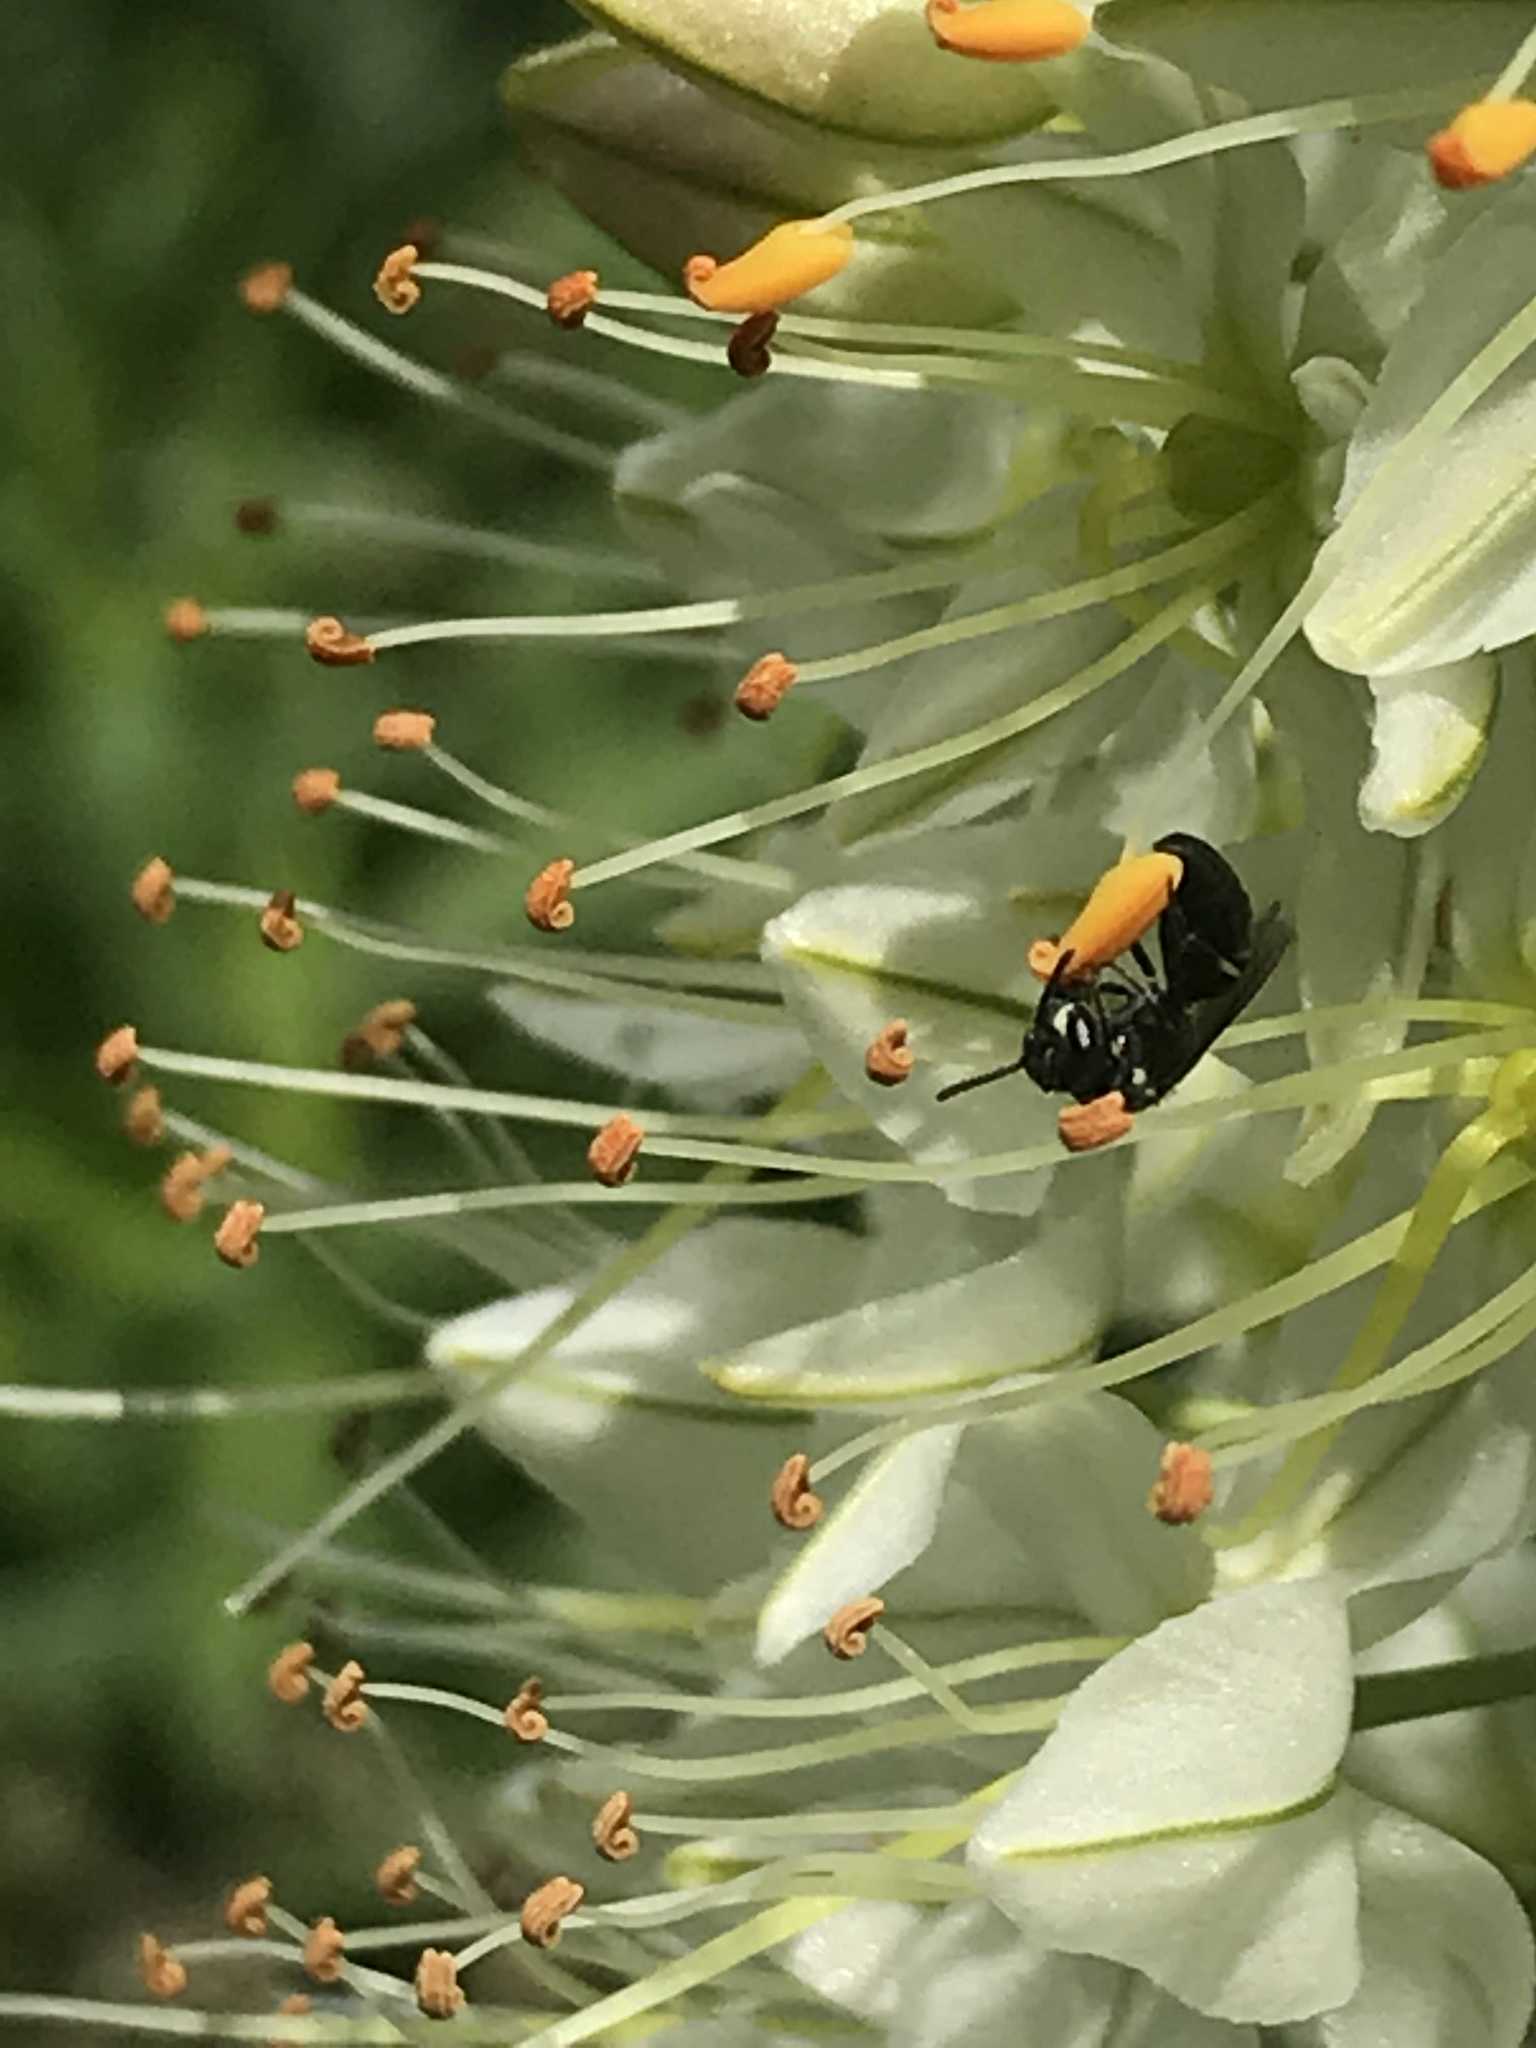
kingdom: Animalia
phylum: Arthropoda
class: Insecta
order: Hymenoptera
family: Colletidae
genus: Hylaeus
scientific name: Hylaeus
